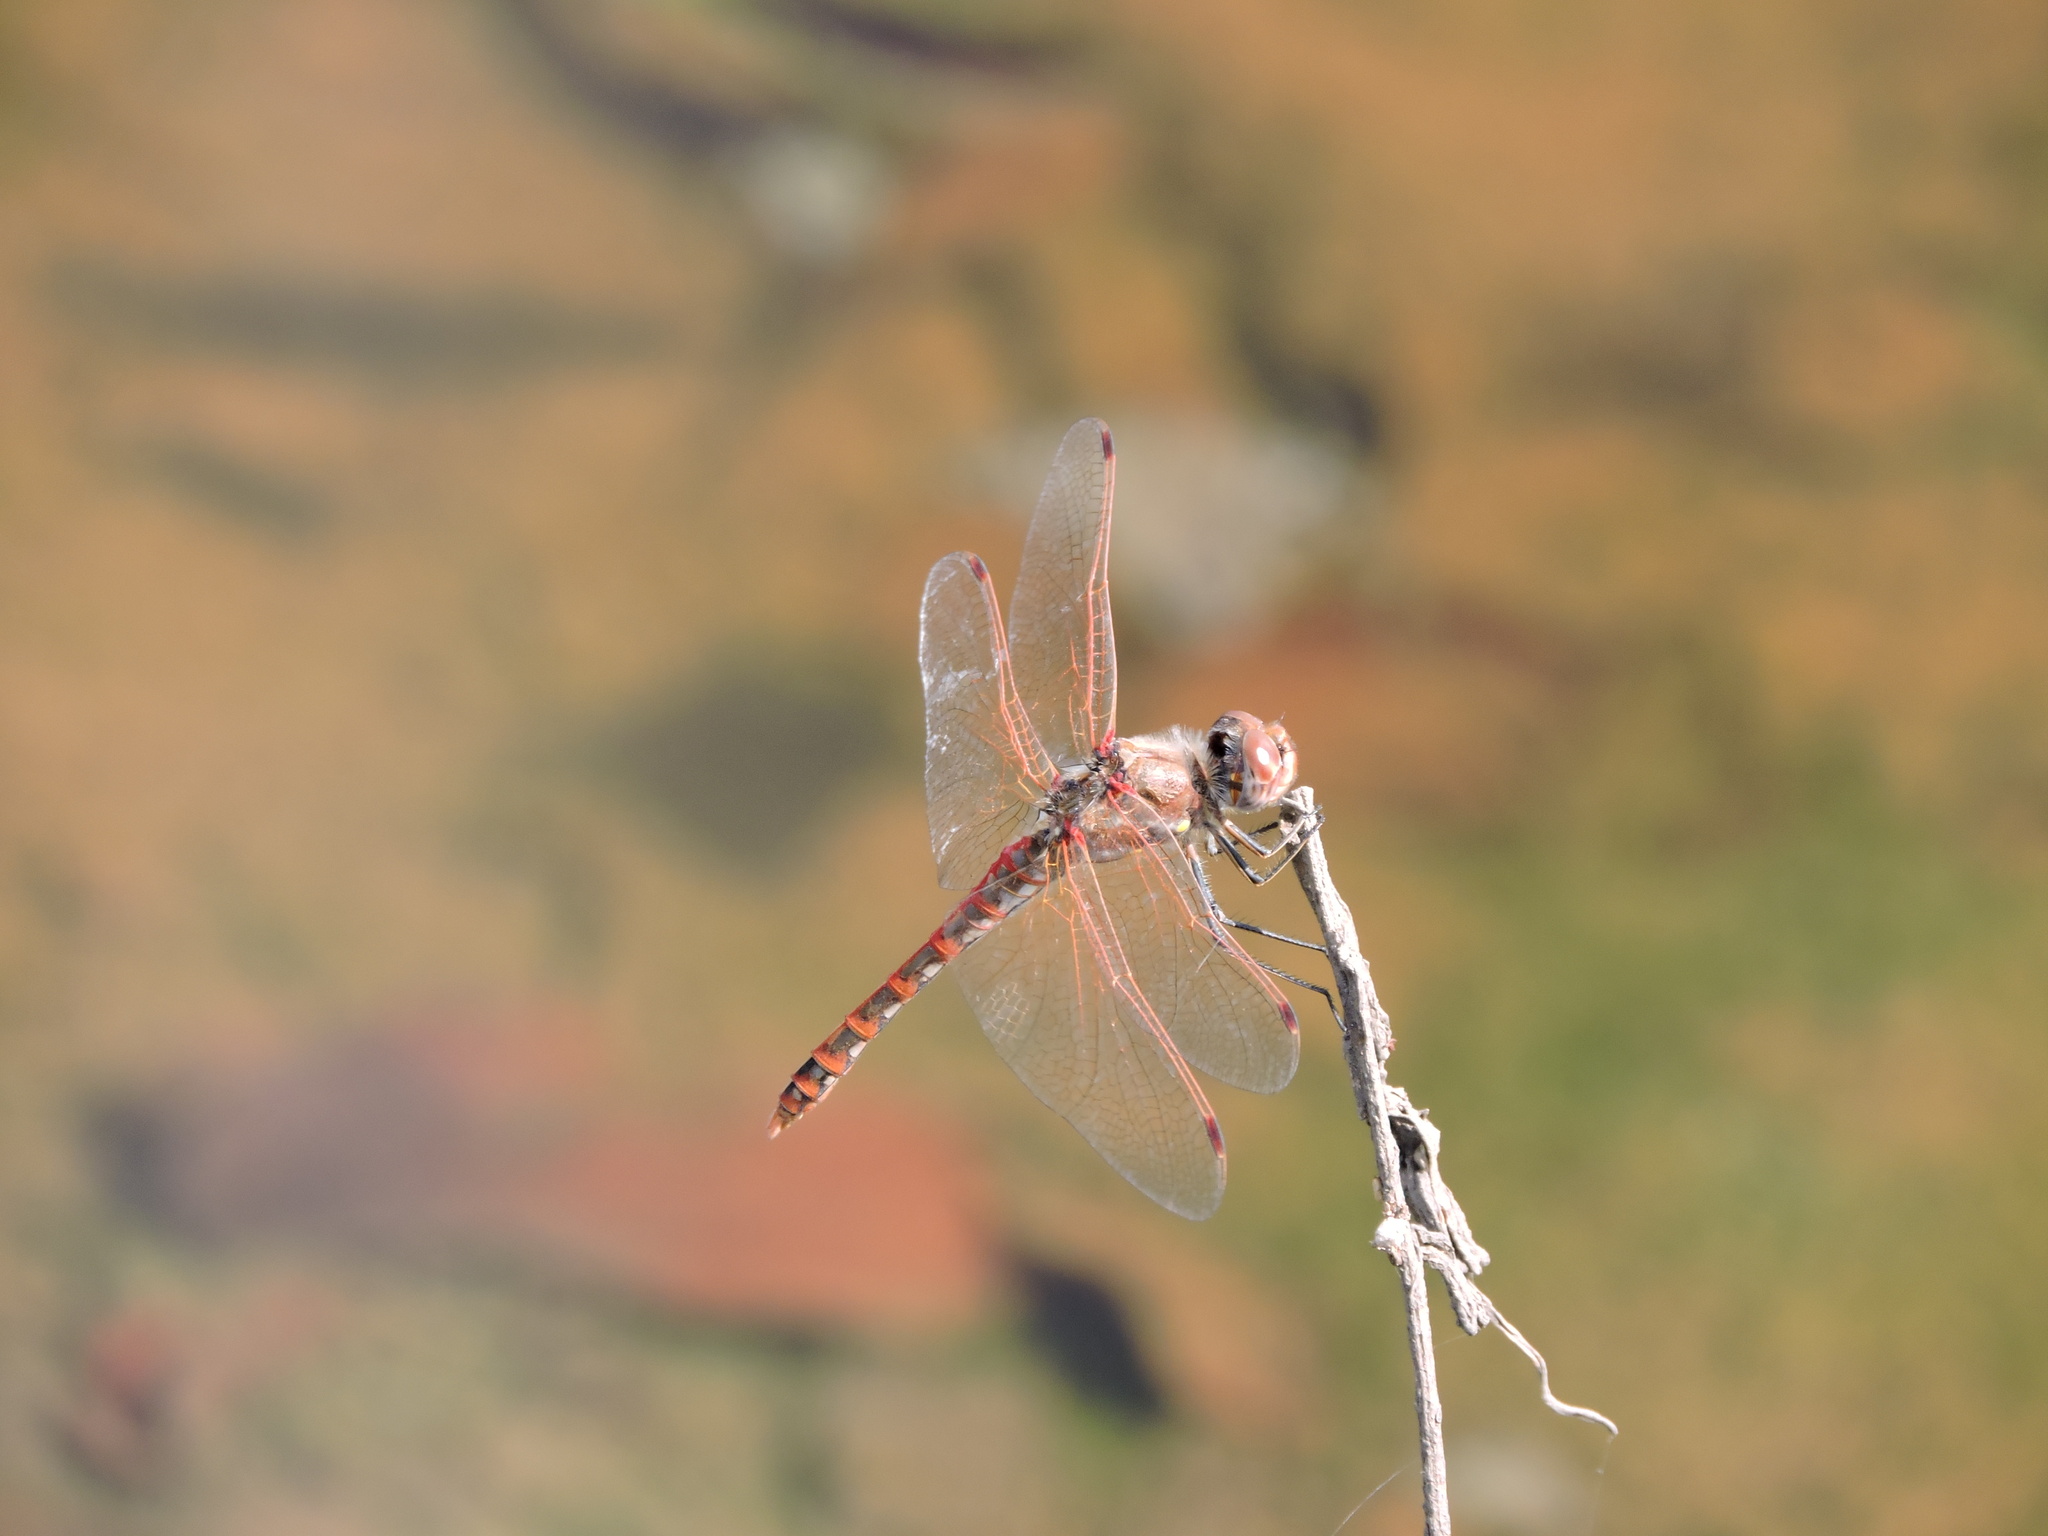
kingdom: Animalia
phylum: Arthropoda
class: Insecta
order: Odonata
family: Libellulidae
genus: Sympetrum
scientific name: Sympetrum corruptum
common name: Variegated meadowhawk
